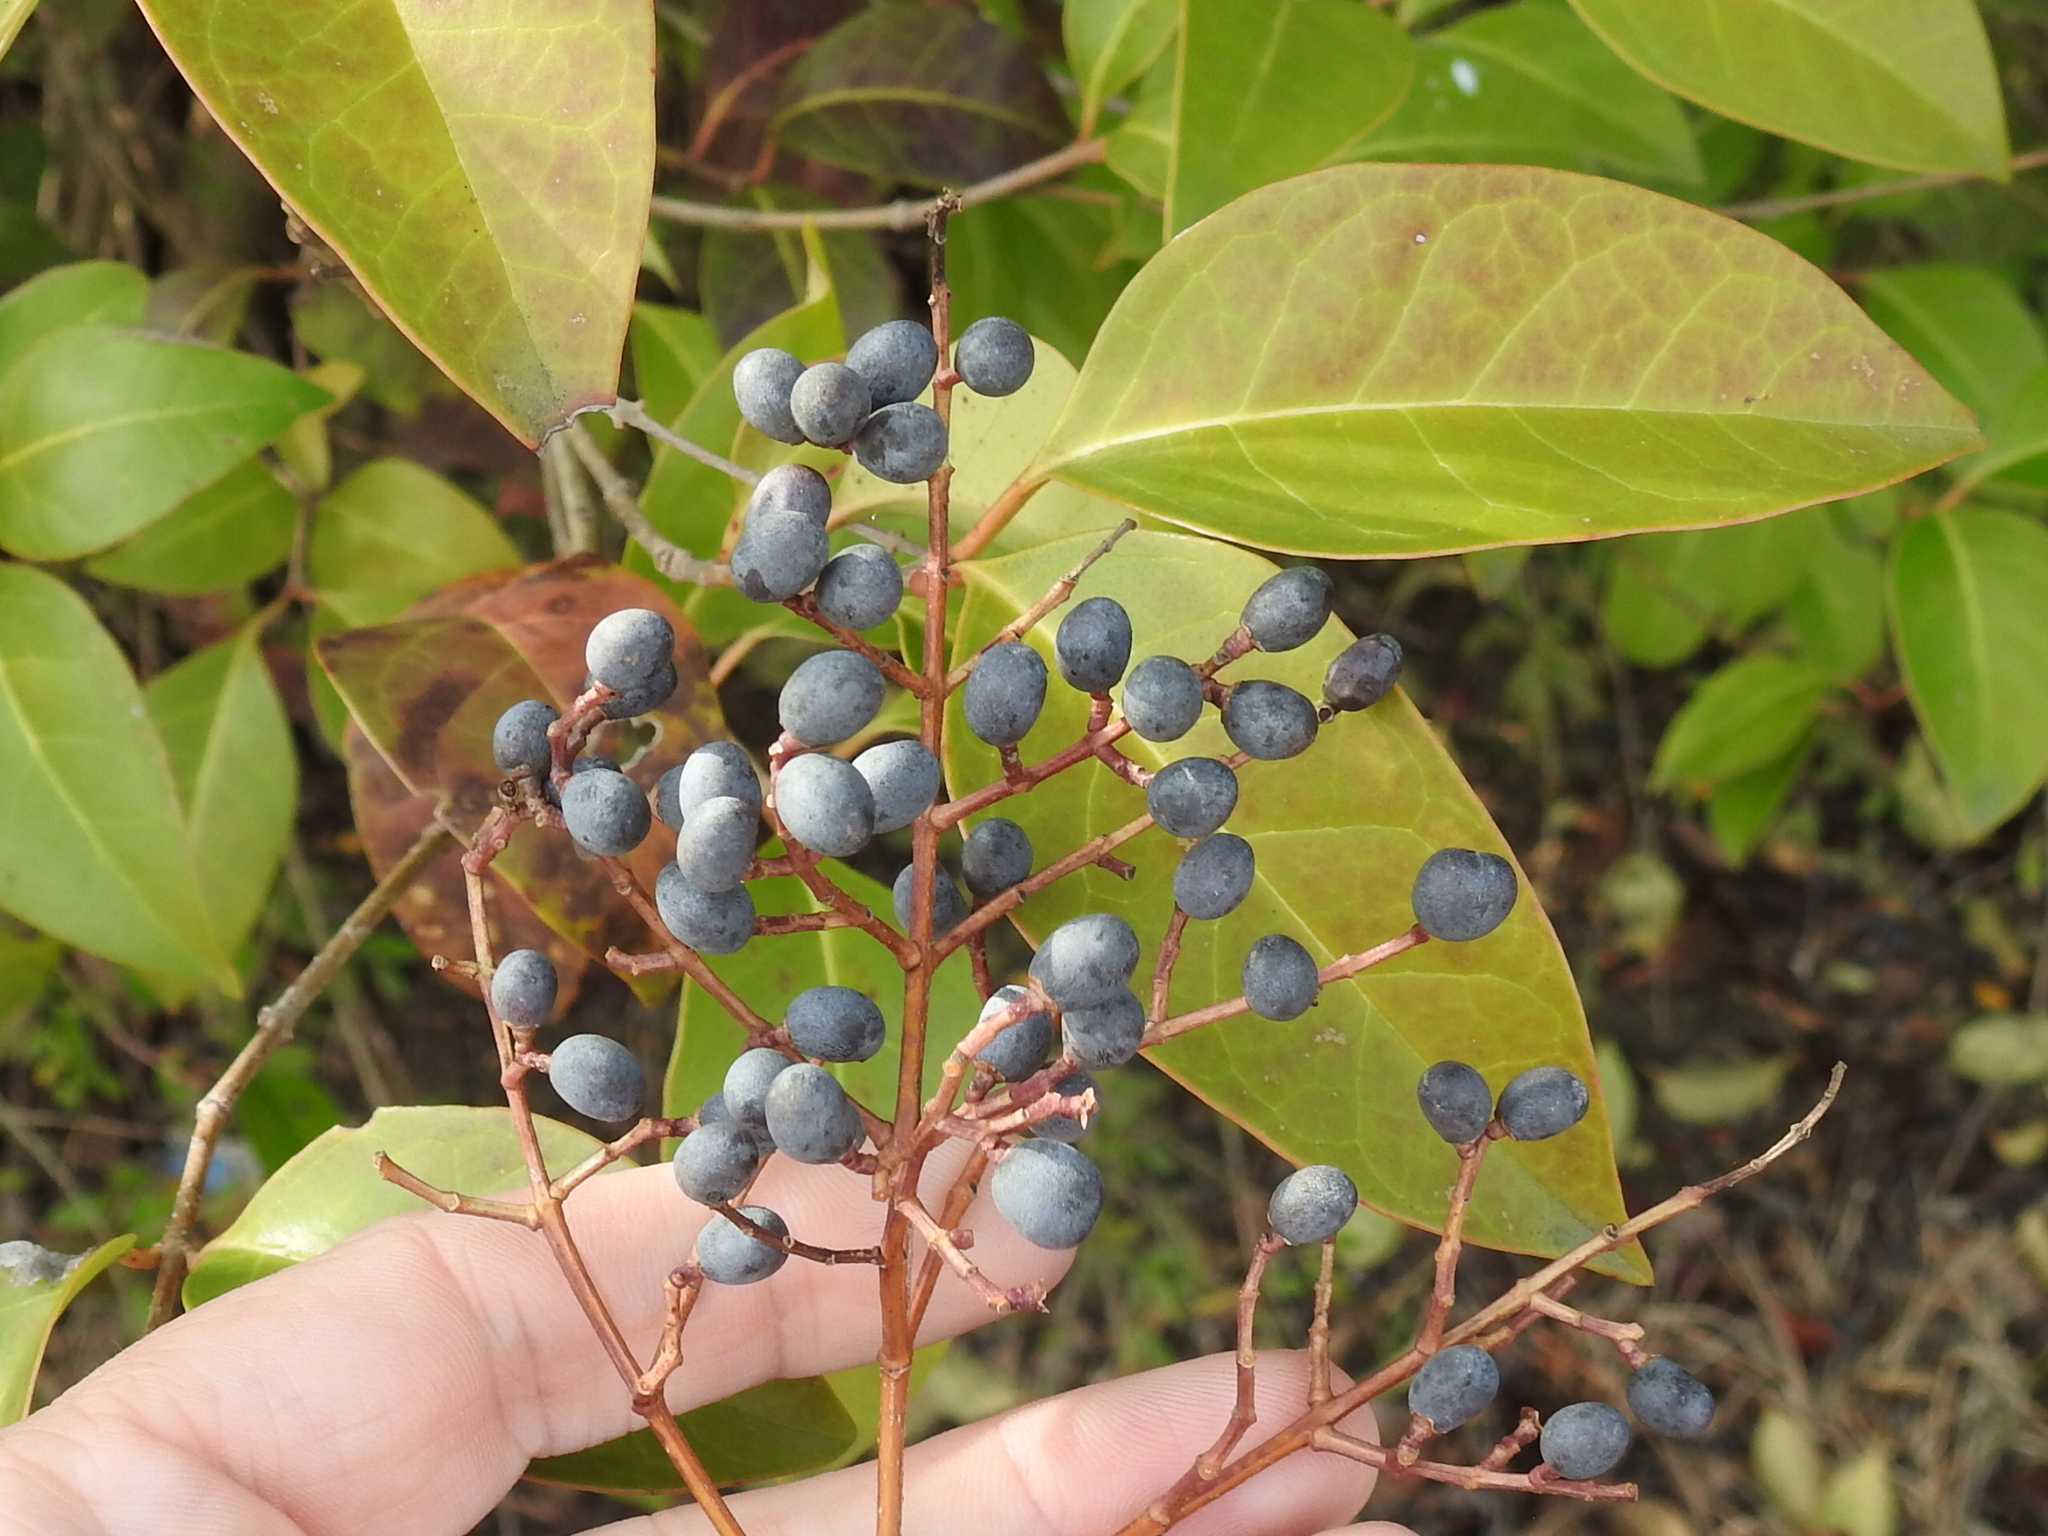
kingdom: Plantae
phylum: Tracheophyta
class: Magnoliopsida
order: Lamiales
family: Oleaceae
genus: Ligustrum
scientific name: Ligustrum lucidum
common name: Glossy privet
